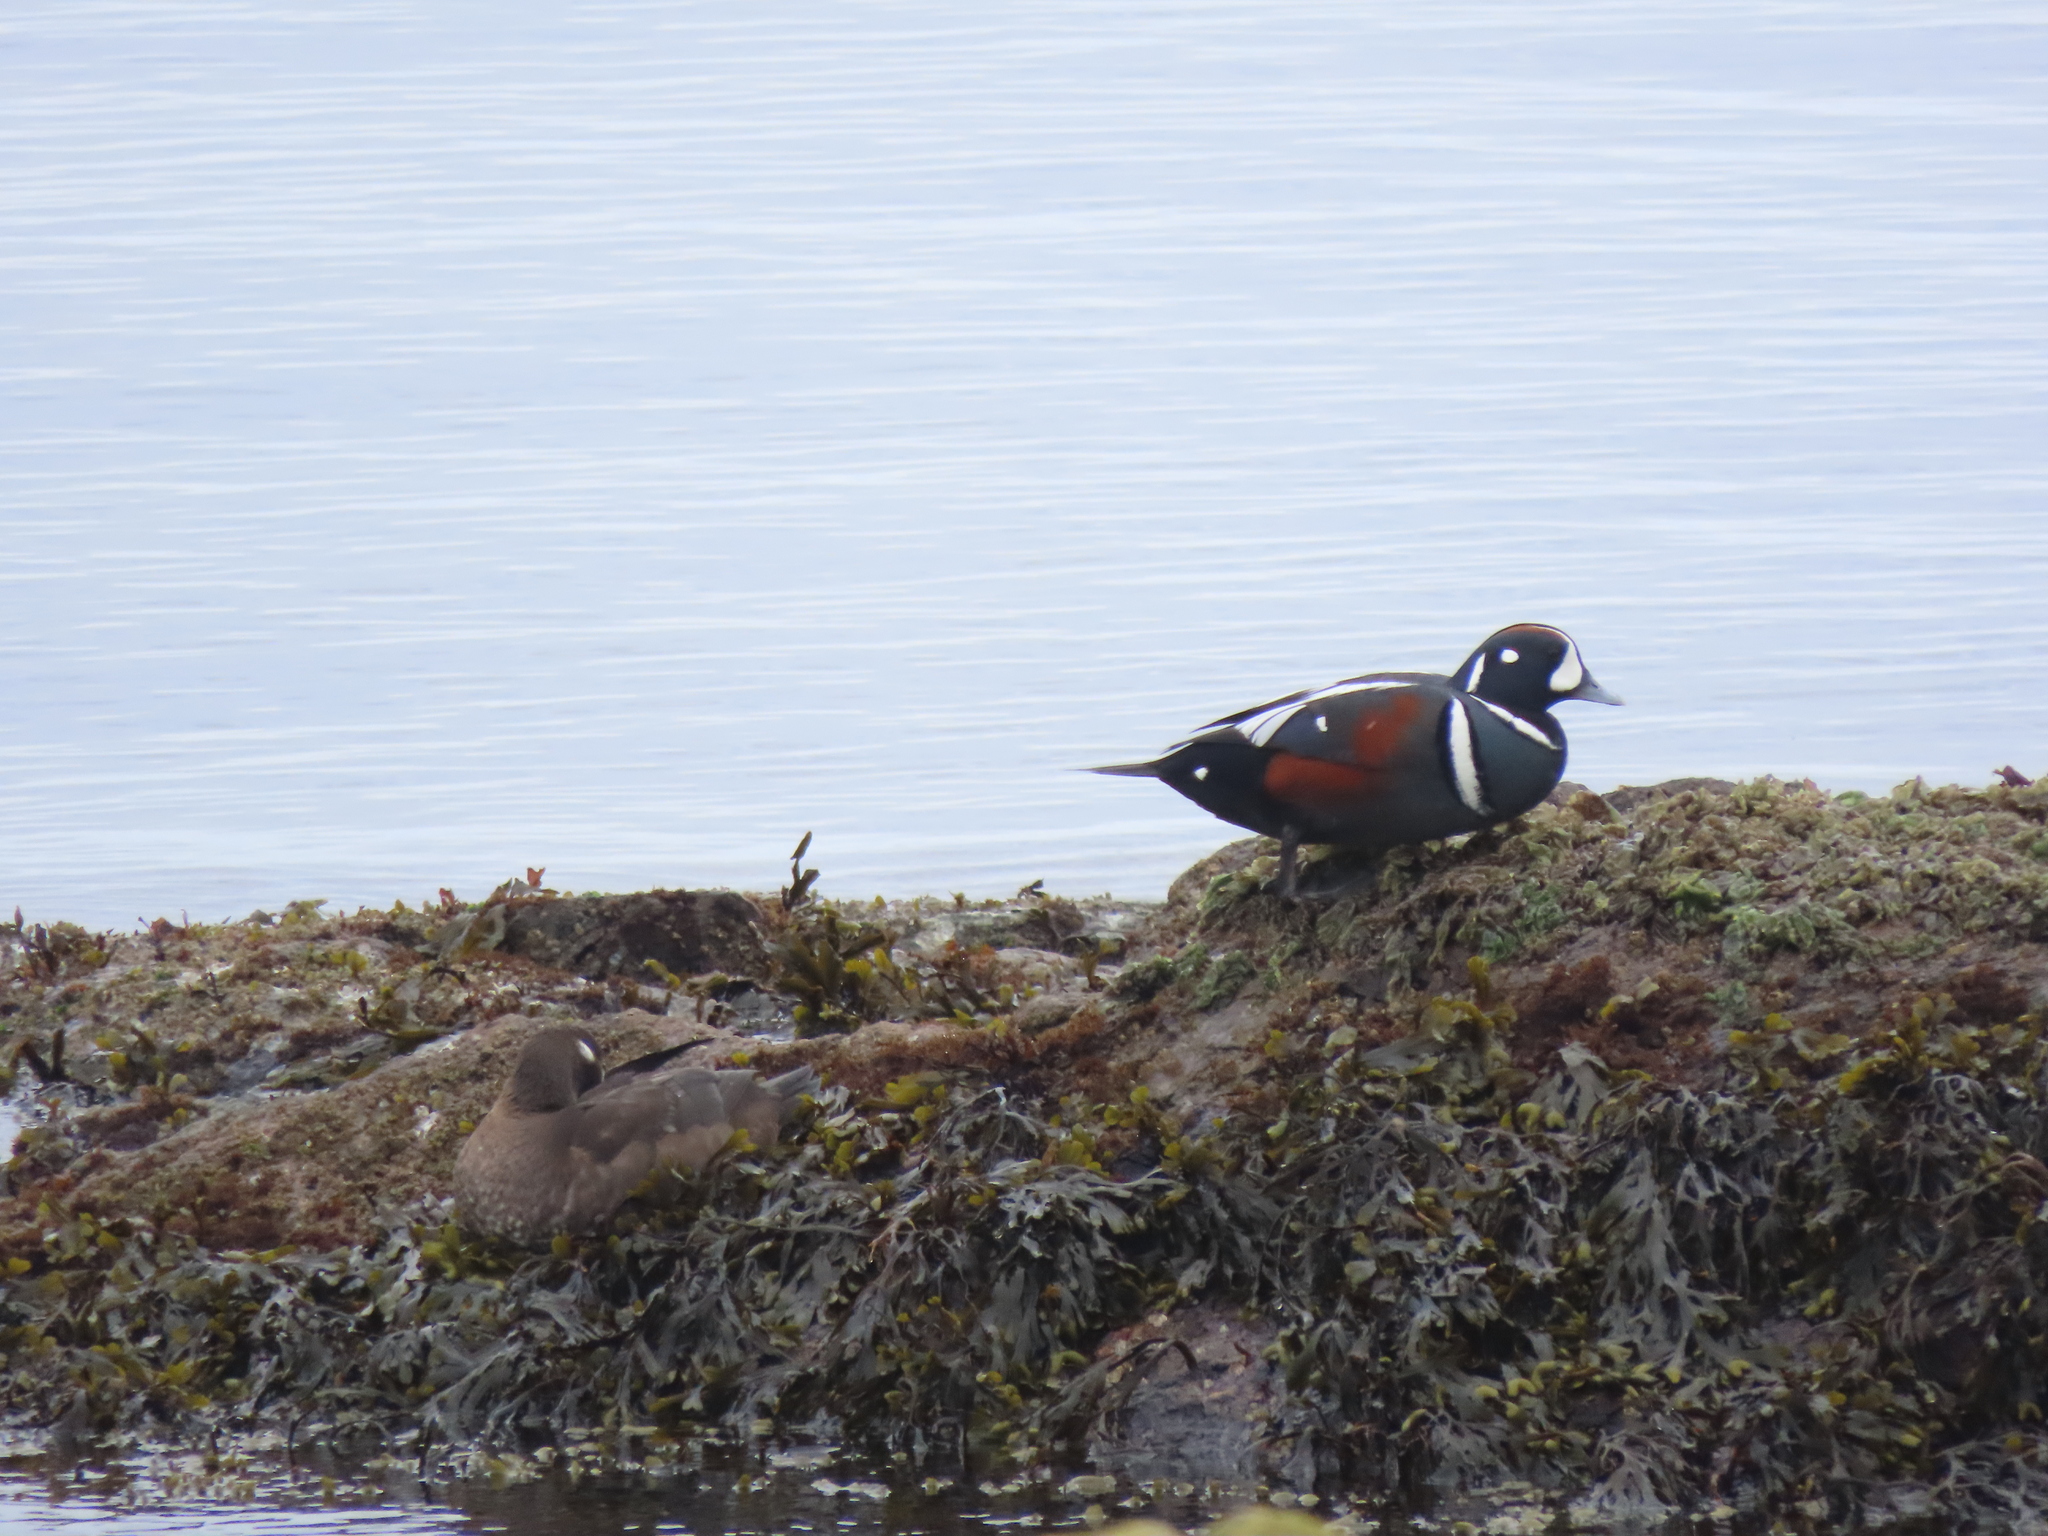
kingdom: Animalia
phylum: Chordata
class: Aves
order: Anseriformes
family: Anatidae
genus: Histrionicus
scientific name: Histrionicus histrionicus
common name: Harlequin duck
